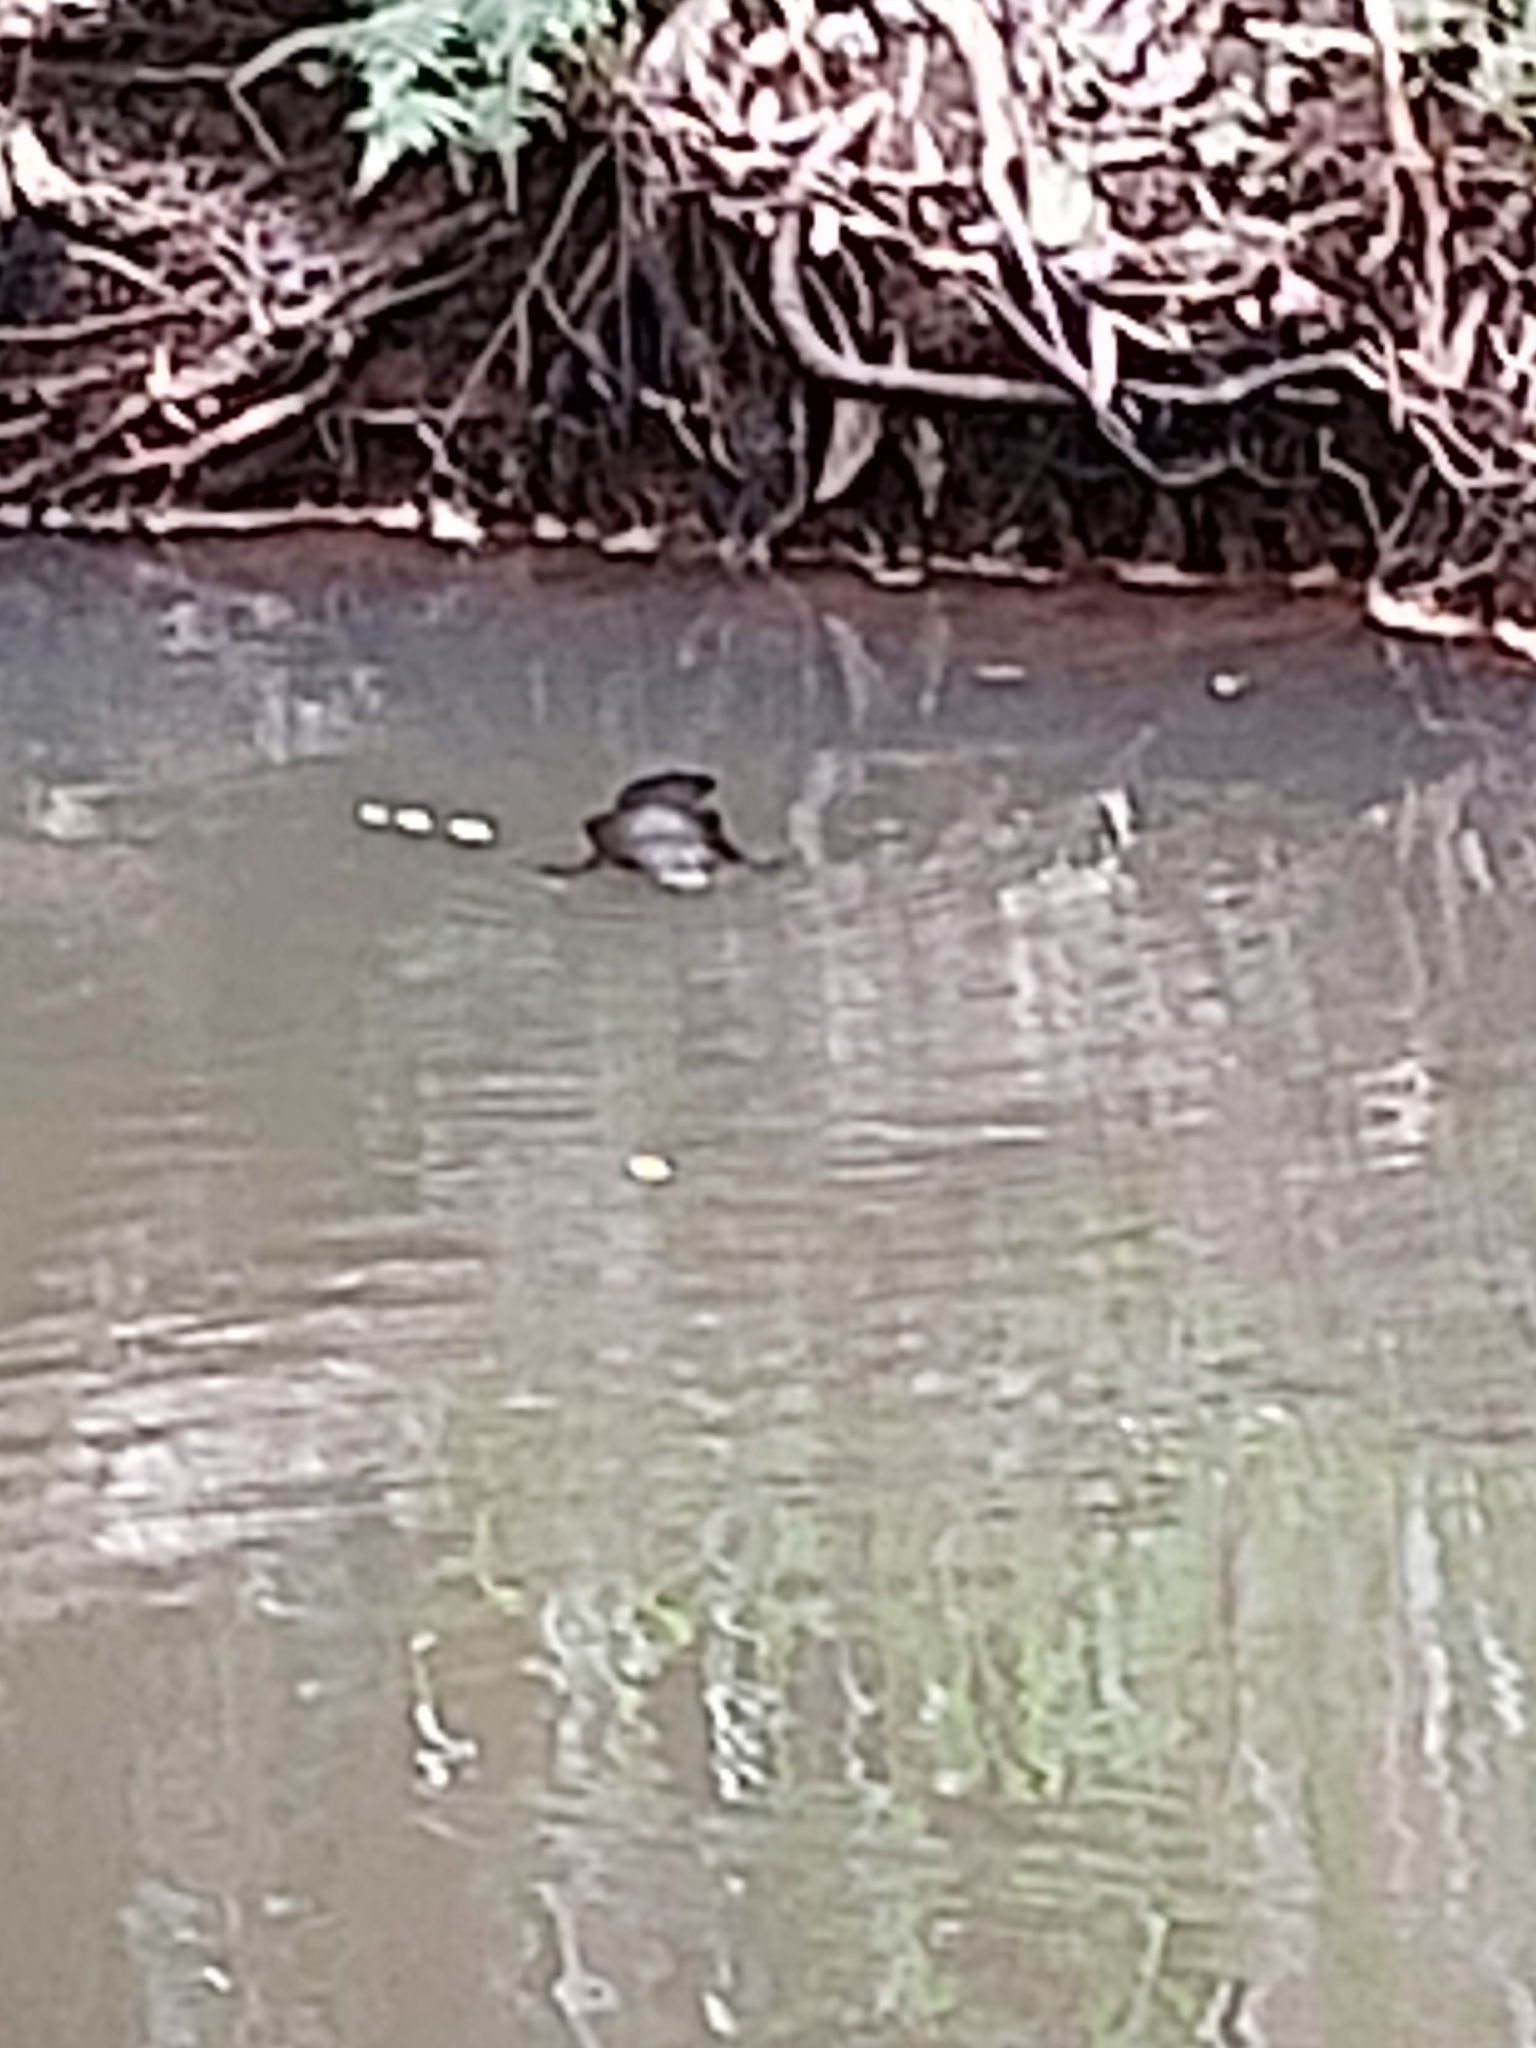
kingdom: Animalia
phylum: Chordata
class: Mammalia
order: Monotremata
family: Ornithorhynchidae
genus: Ornithorhynchus
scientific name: Ornithorhynchus anatinus
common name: Platypus
